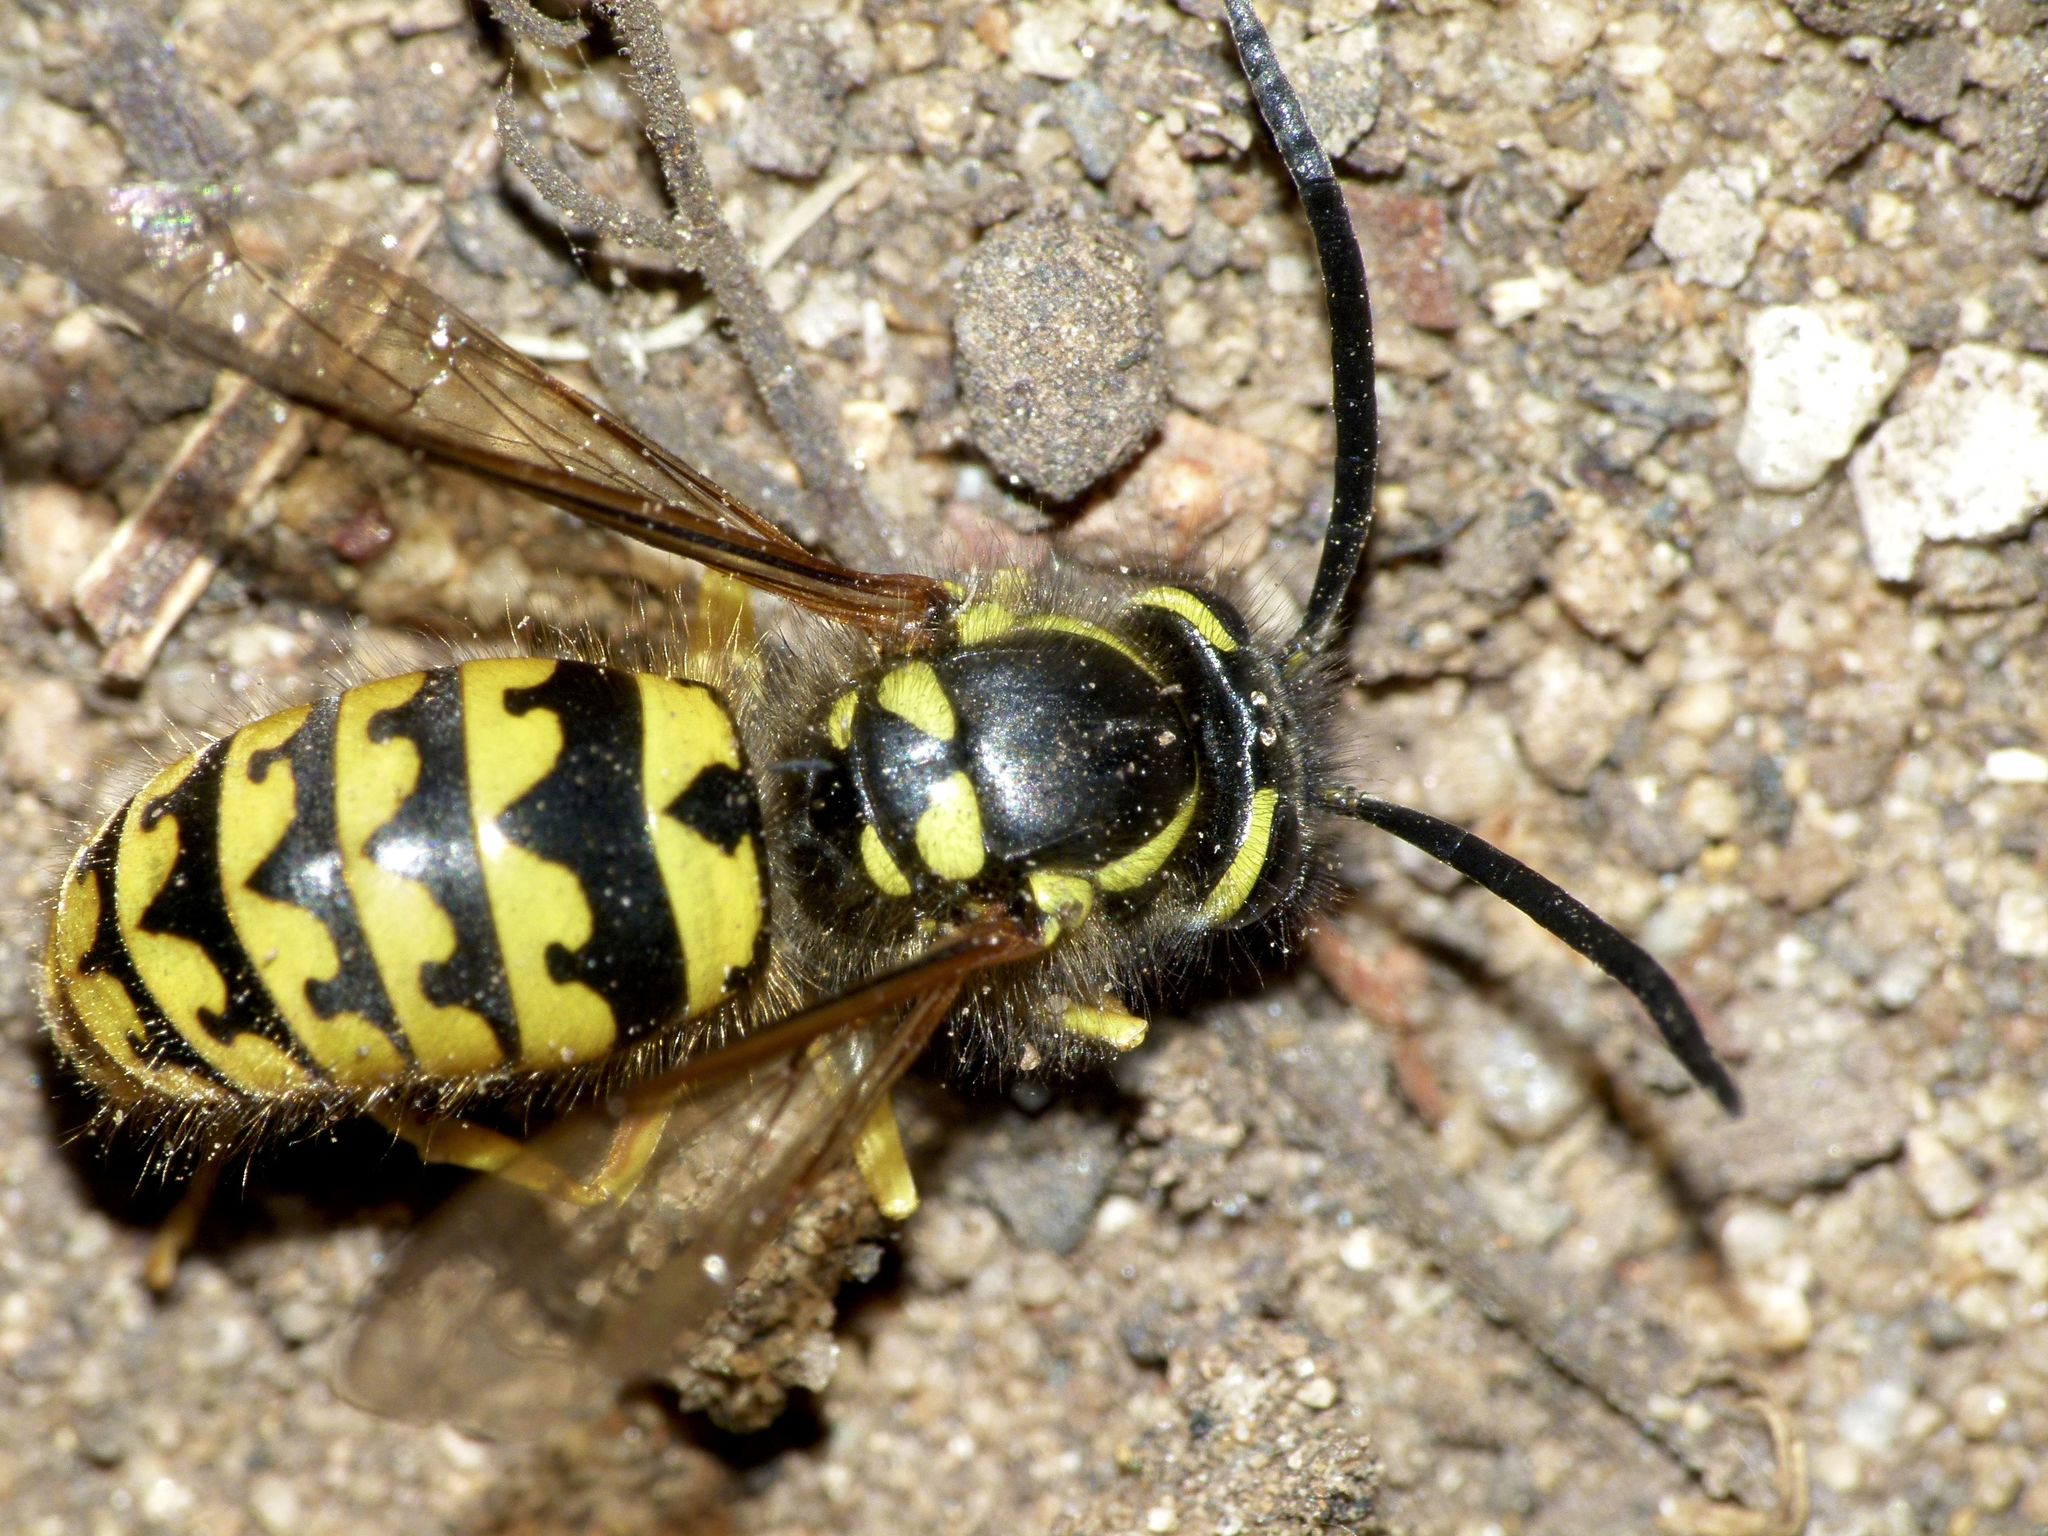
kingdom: Animalia
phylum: Arthropoda
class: Insecta
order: Hymenoptera
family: Vespidae
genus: Vespula
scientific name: Vespula pensylvanica
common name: Western yellowjacket
